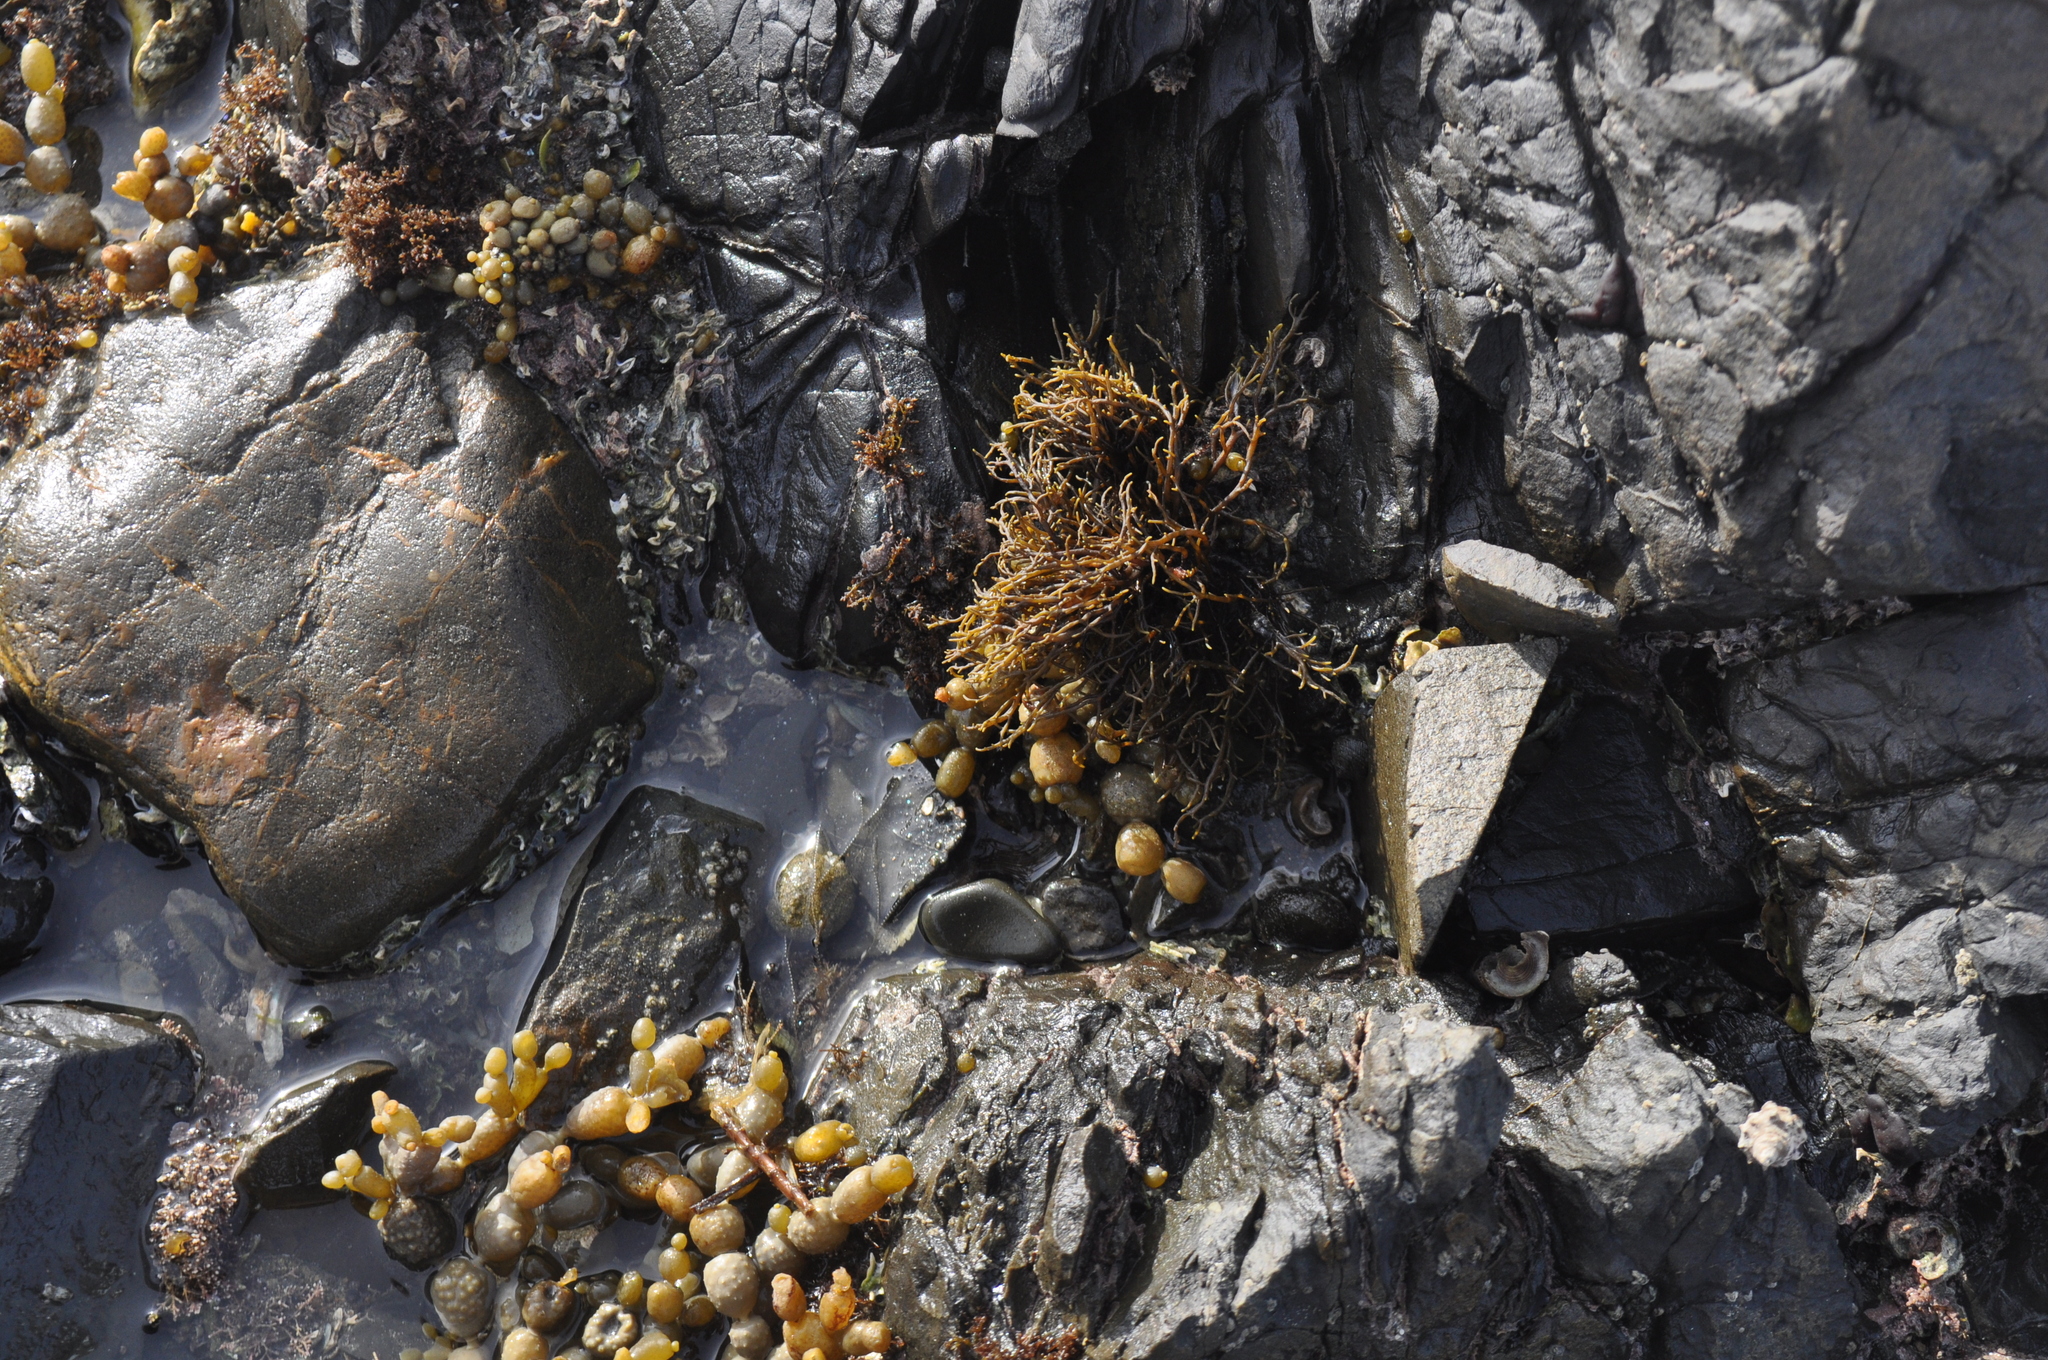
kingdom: Chromista
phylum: Ochrophyta
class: Phaeophyceae
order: Scytothamnales
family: Scytothamnaceae
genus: Scytothamnus
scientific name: Scytothamnus australis
